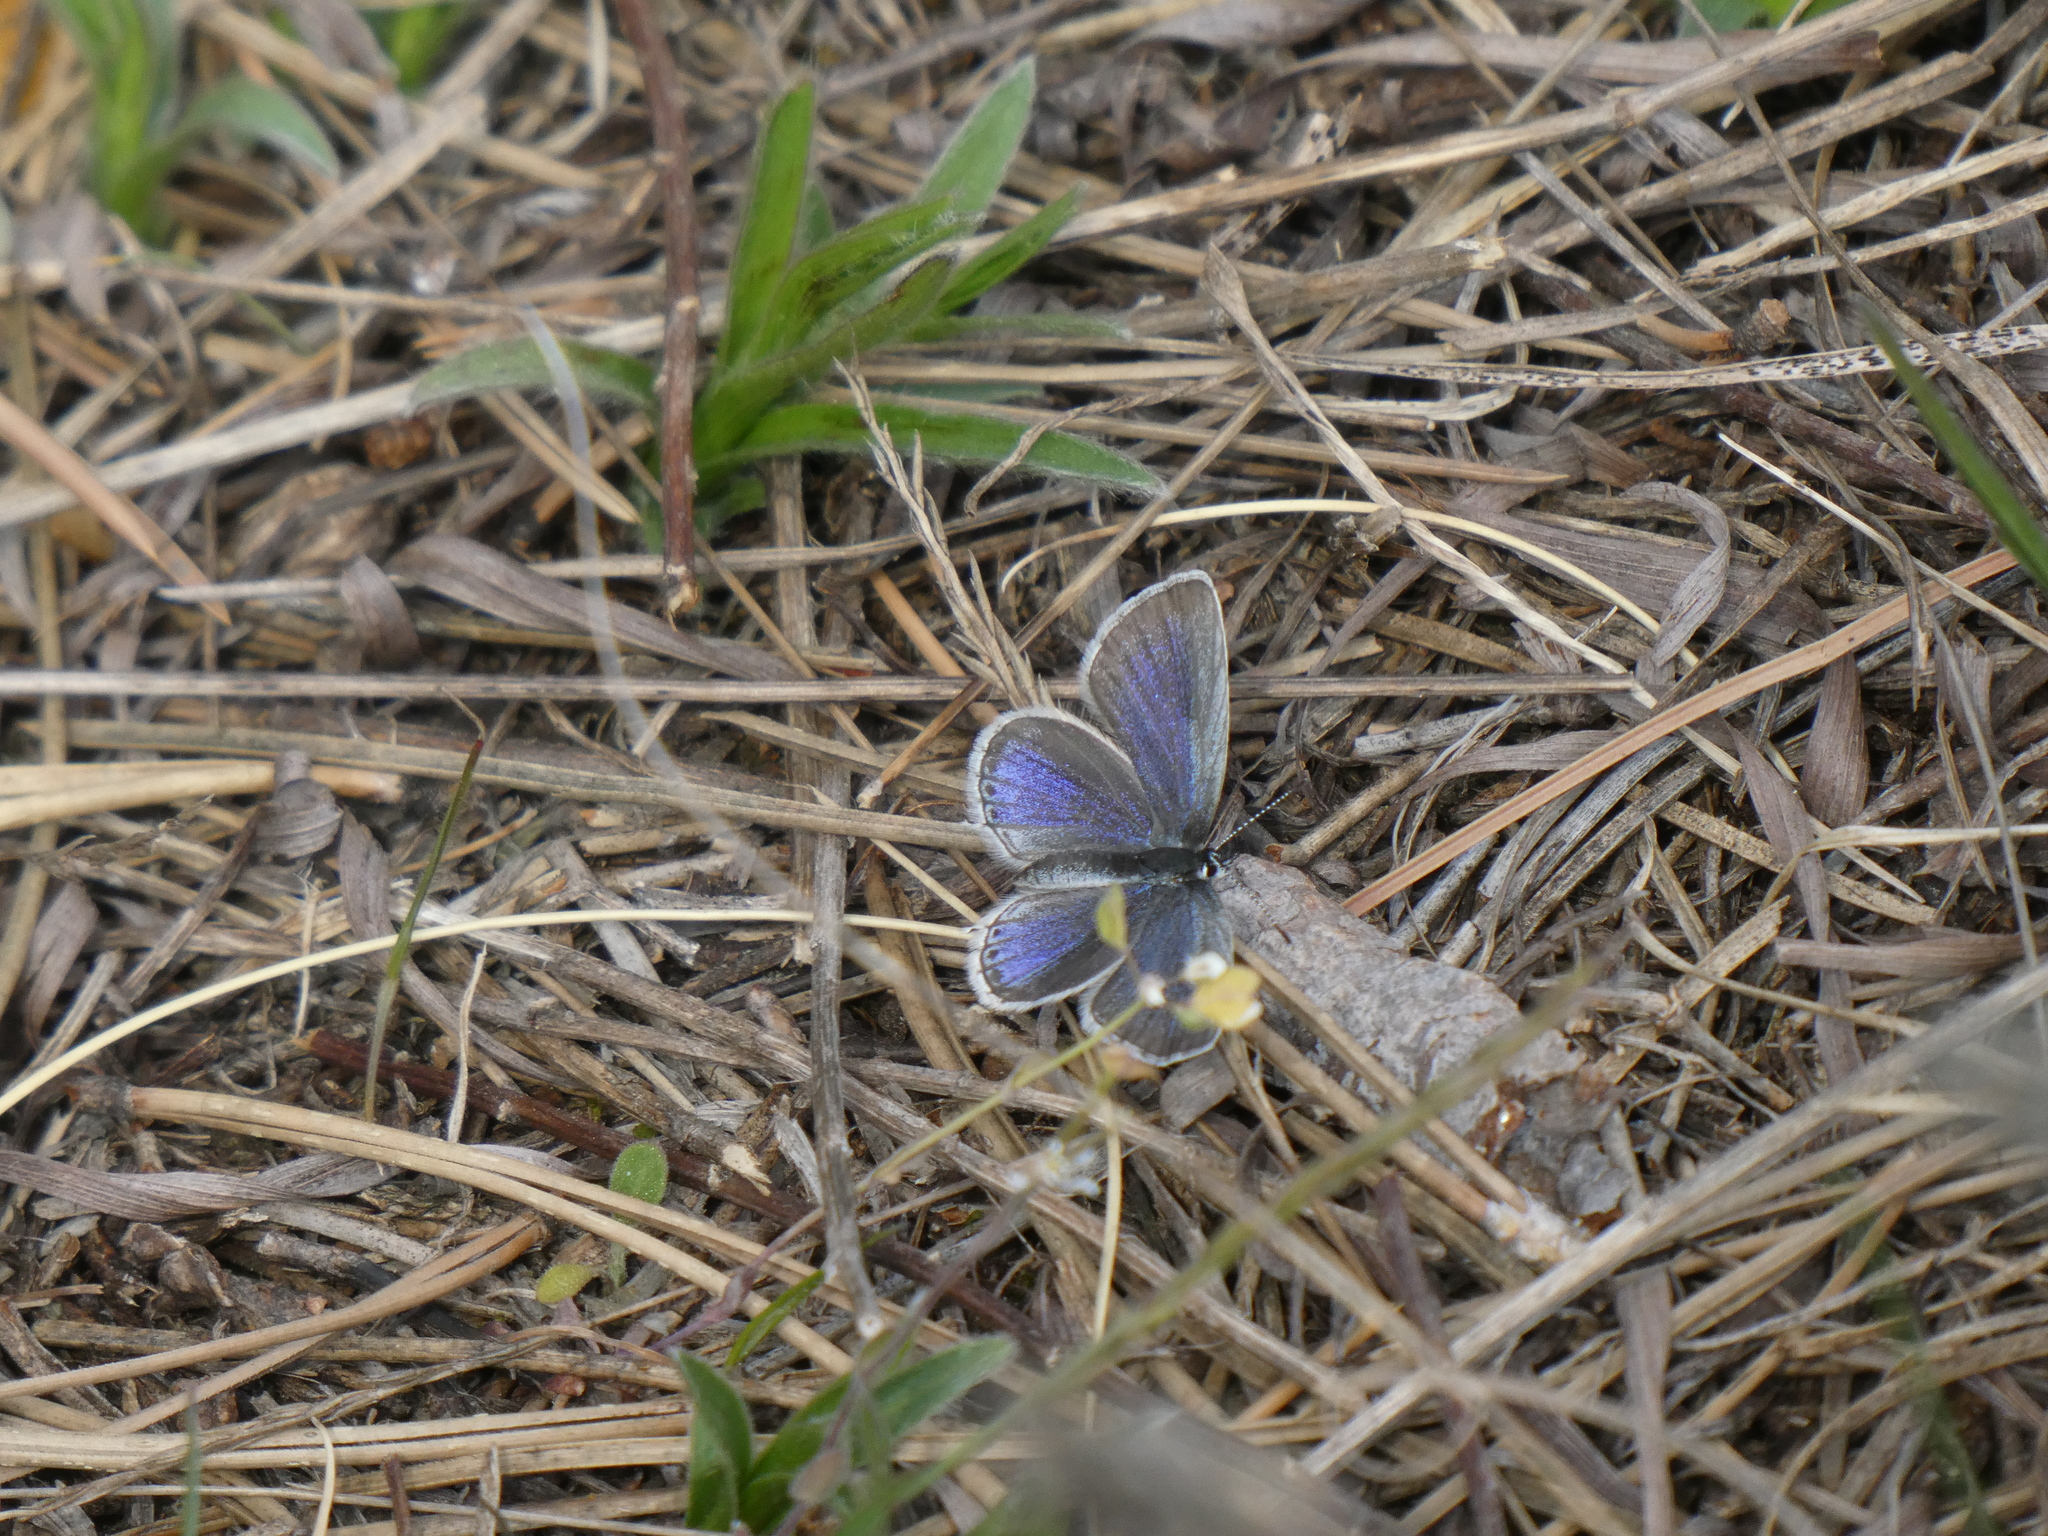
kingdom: Animalia
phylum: Arthropoda
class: Insecta
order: Lepidoptera
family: Lycaenidae
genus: Elkalyce
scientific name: Elkalyce argiades
